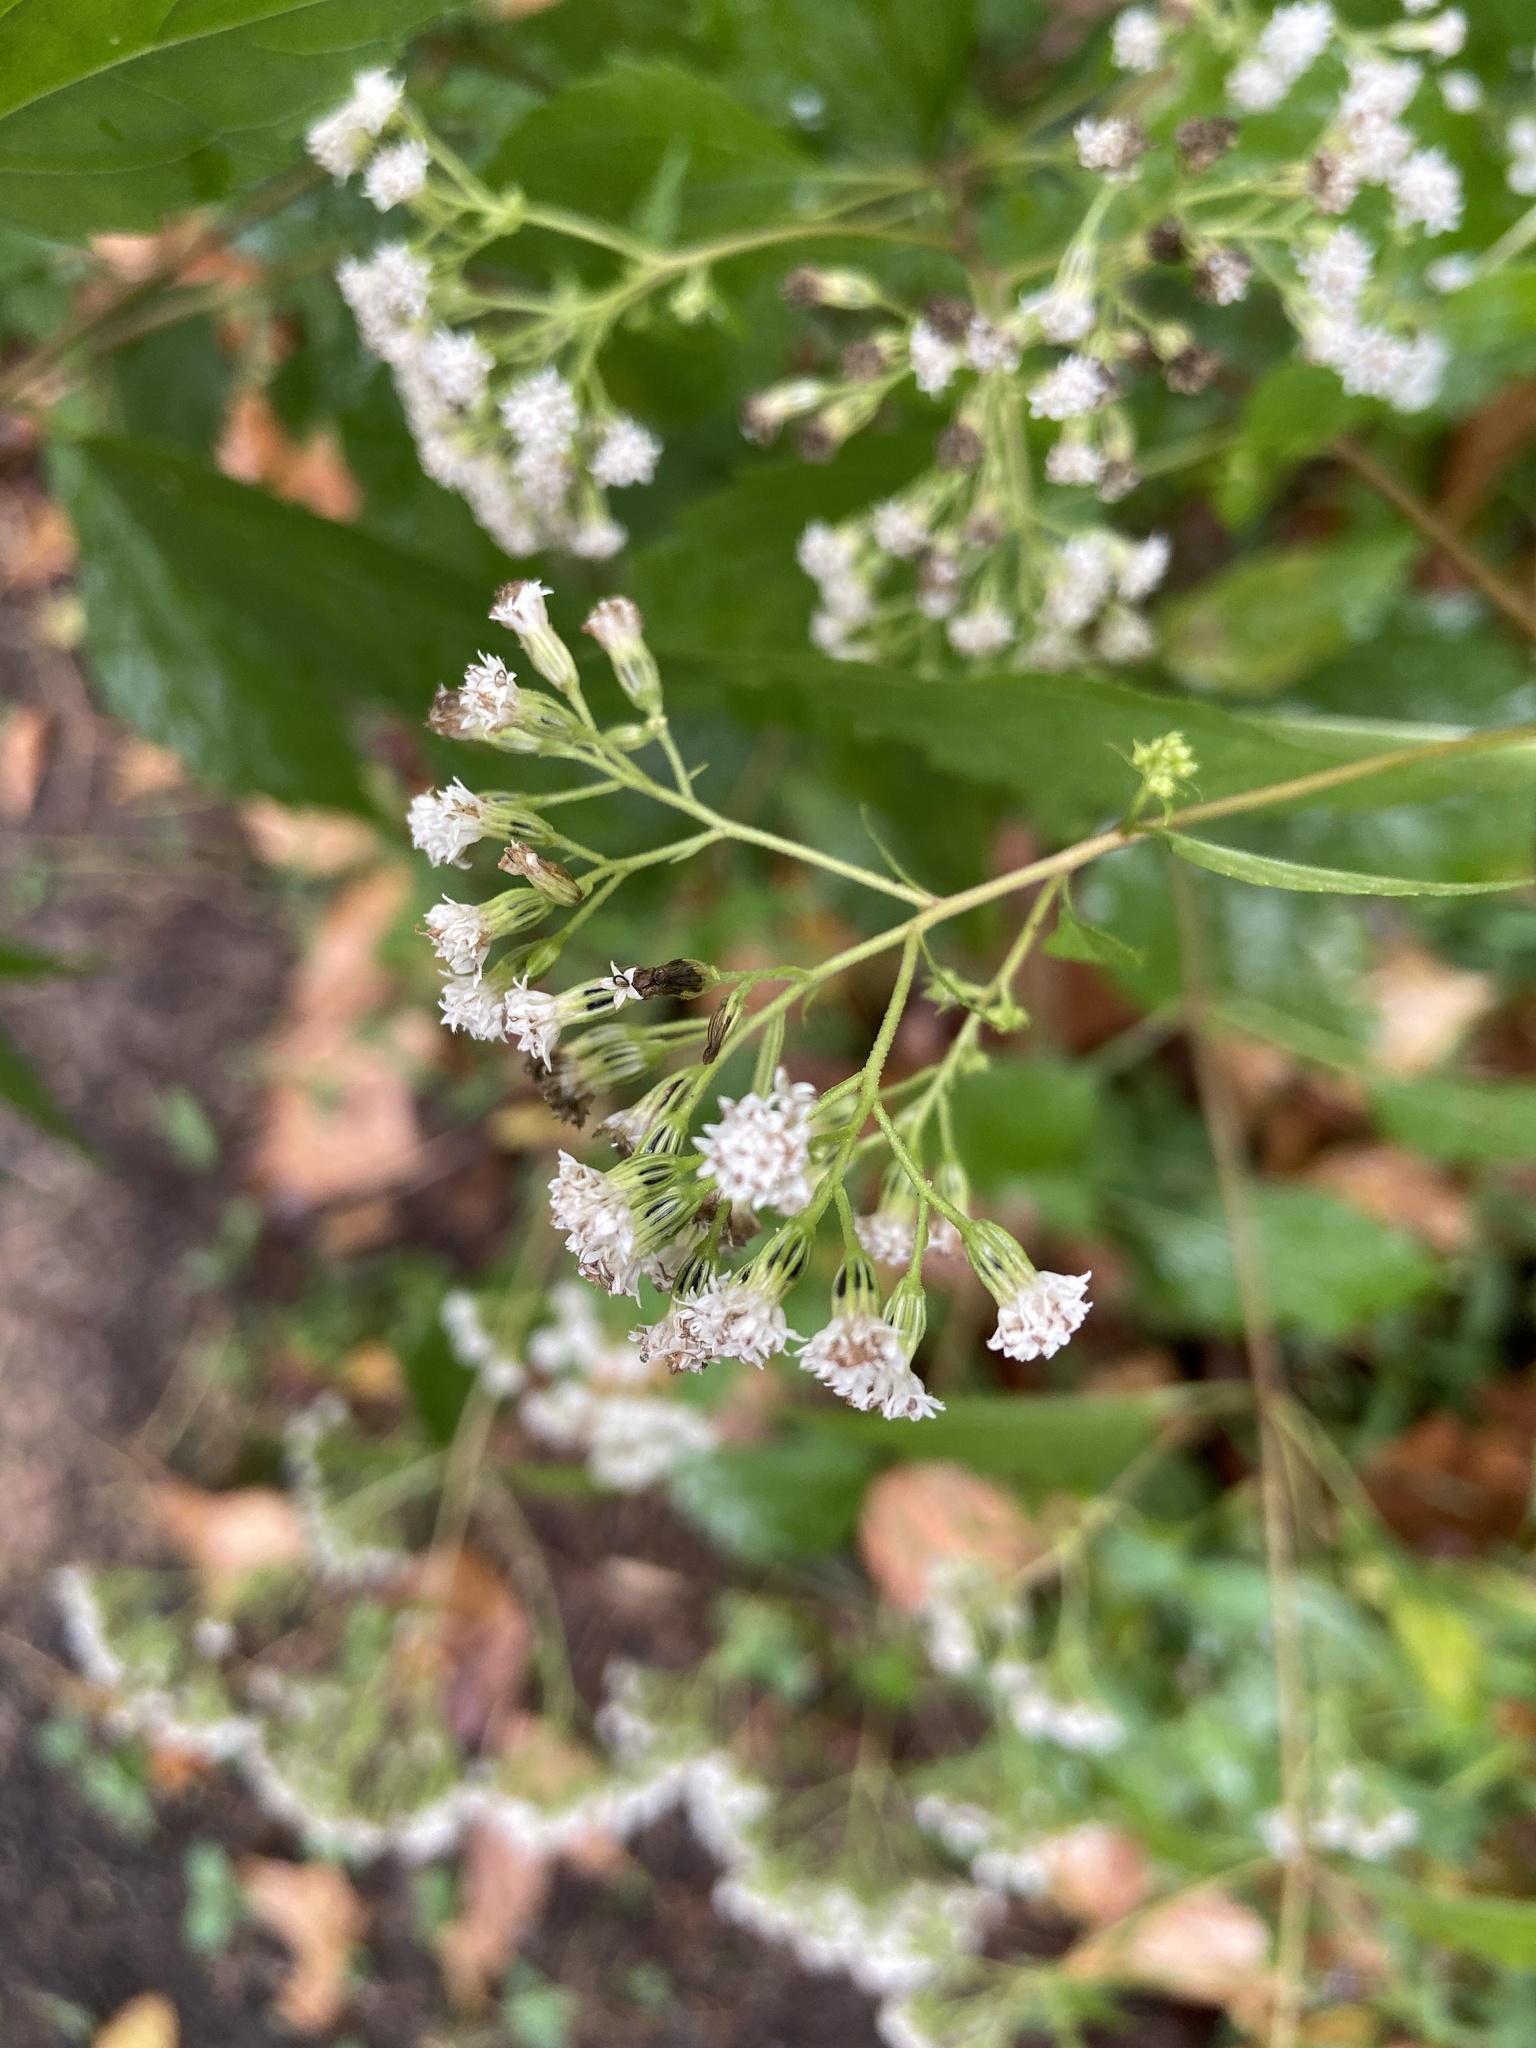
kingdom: Plantae
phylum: Tracheophyta
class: Magnoliopsida
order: Asterales
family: Asteraceae
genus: Ageratina
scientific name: Ageratina altissima
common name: White snakeroot
